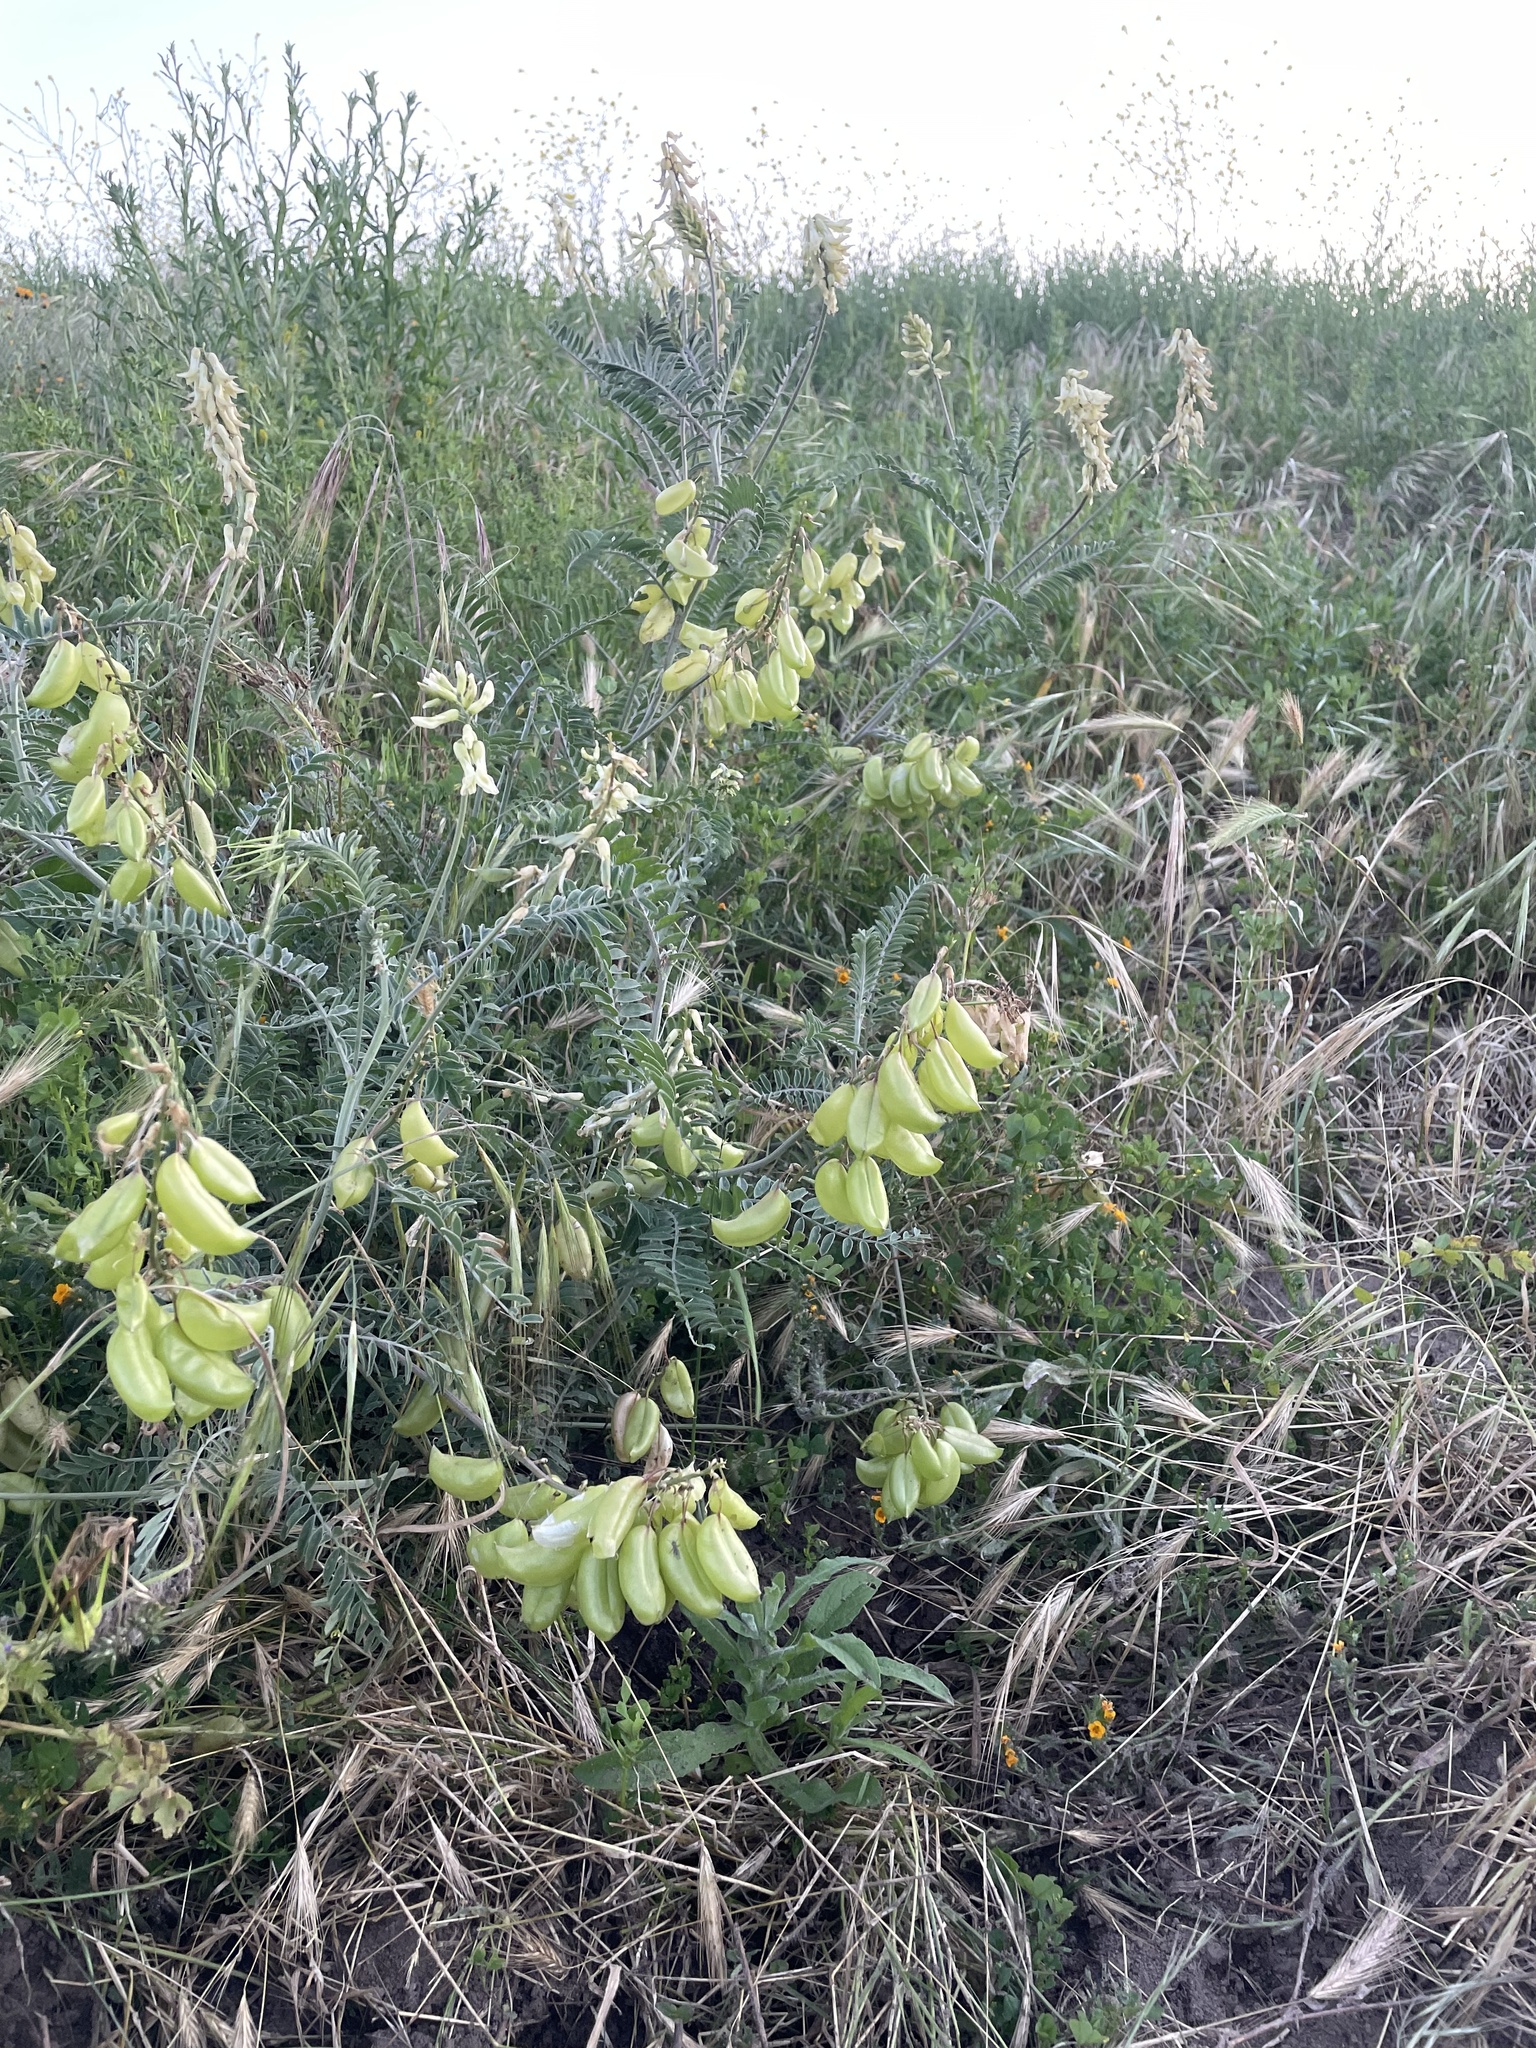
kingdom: Plantae
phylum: Tracheophyta
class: Magnoliopsida
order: Fabales
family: Fabaceae
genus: Astragalus
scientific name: Astragalus trichopodus
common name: Santa barbara milk-vetch
